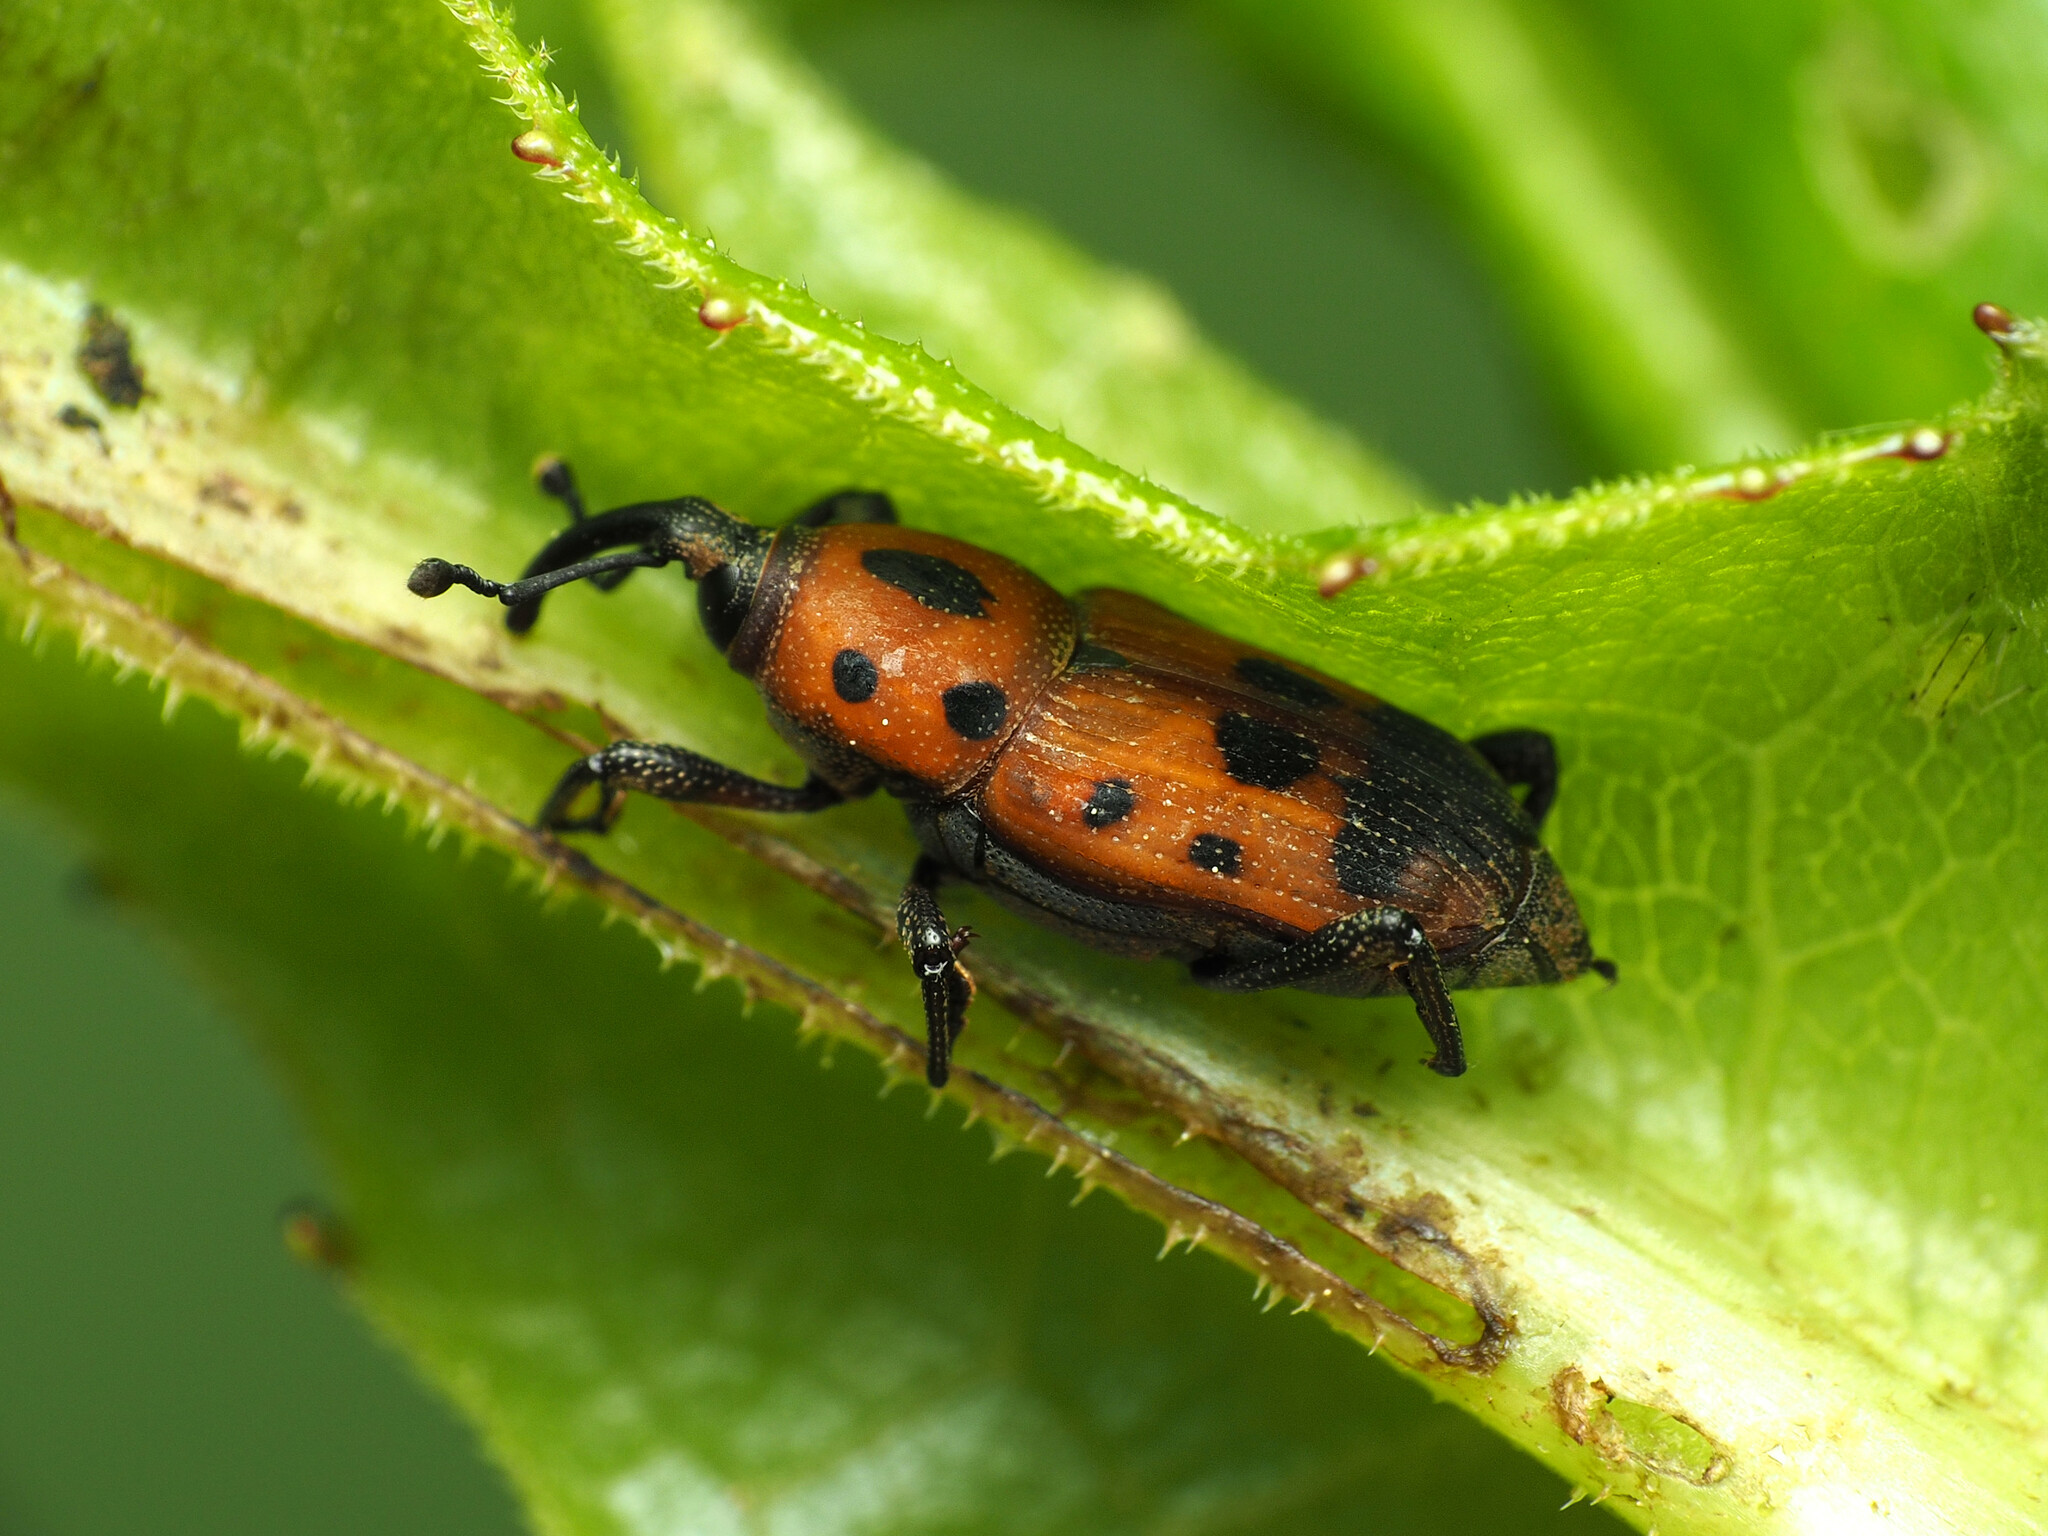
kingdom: Animalia
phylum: Arthropoda
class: Insecta
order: Coleoptera
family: Dryophthoridae
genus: Rhodobaenus
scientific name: Rhodobaenus quinquepunctatus
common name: Cocklebur weevil
